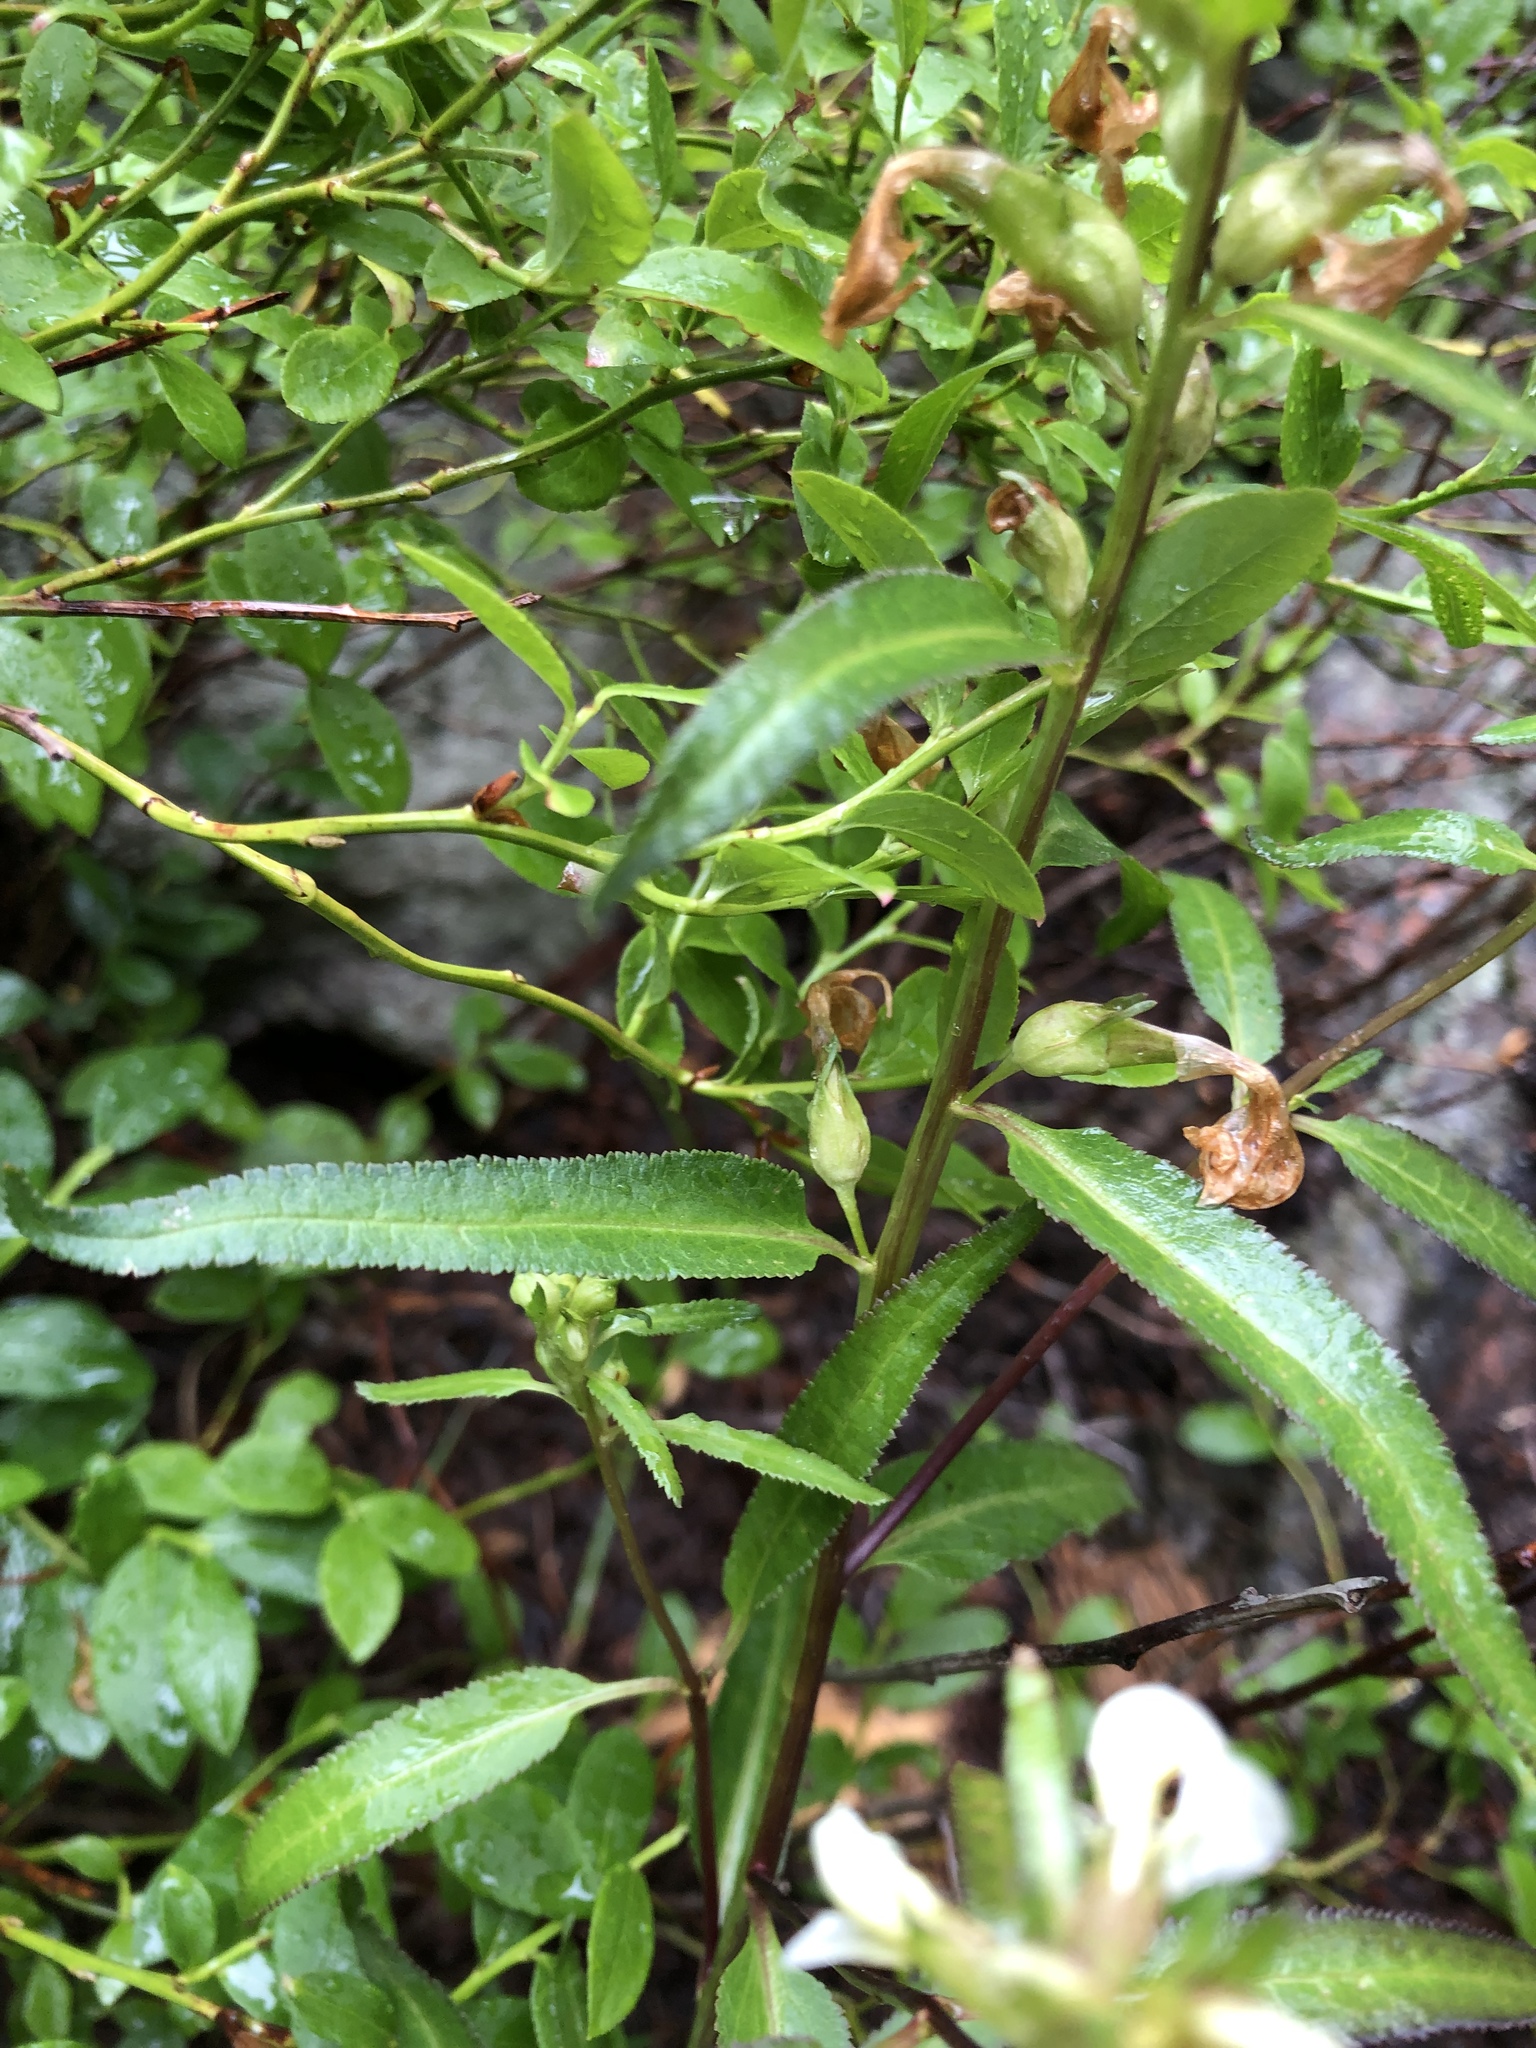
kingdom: Plantae
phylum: Tracheophyta
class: Magnoliopsida
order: Lamiales
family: Orobanchaceae
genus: Pedicularis
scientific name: Pedicularis racemosa
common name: Leafy lousewort
